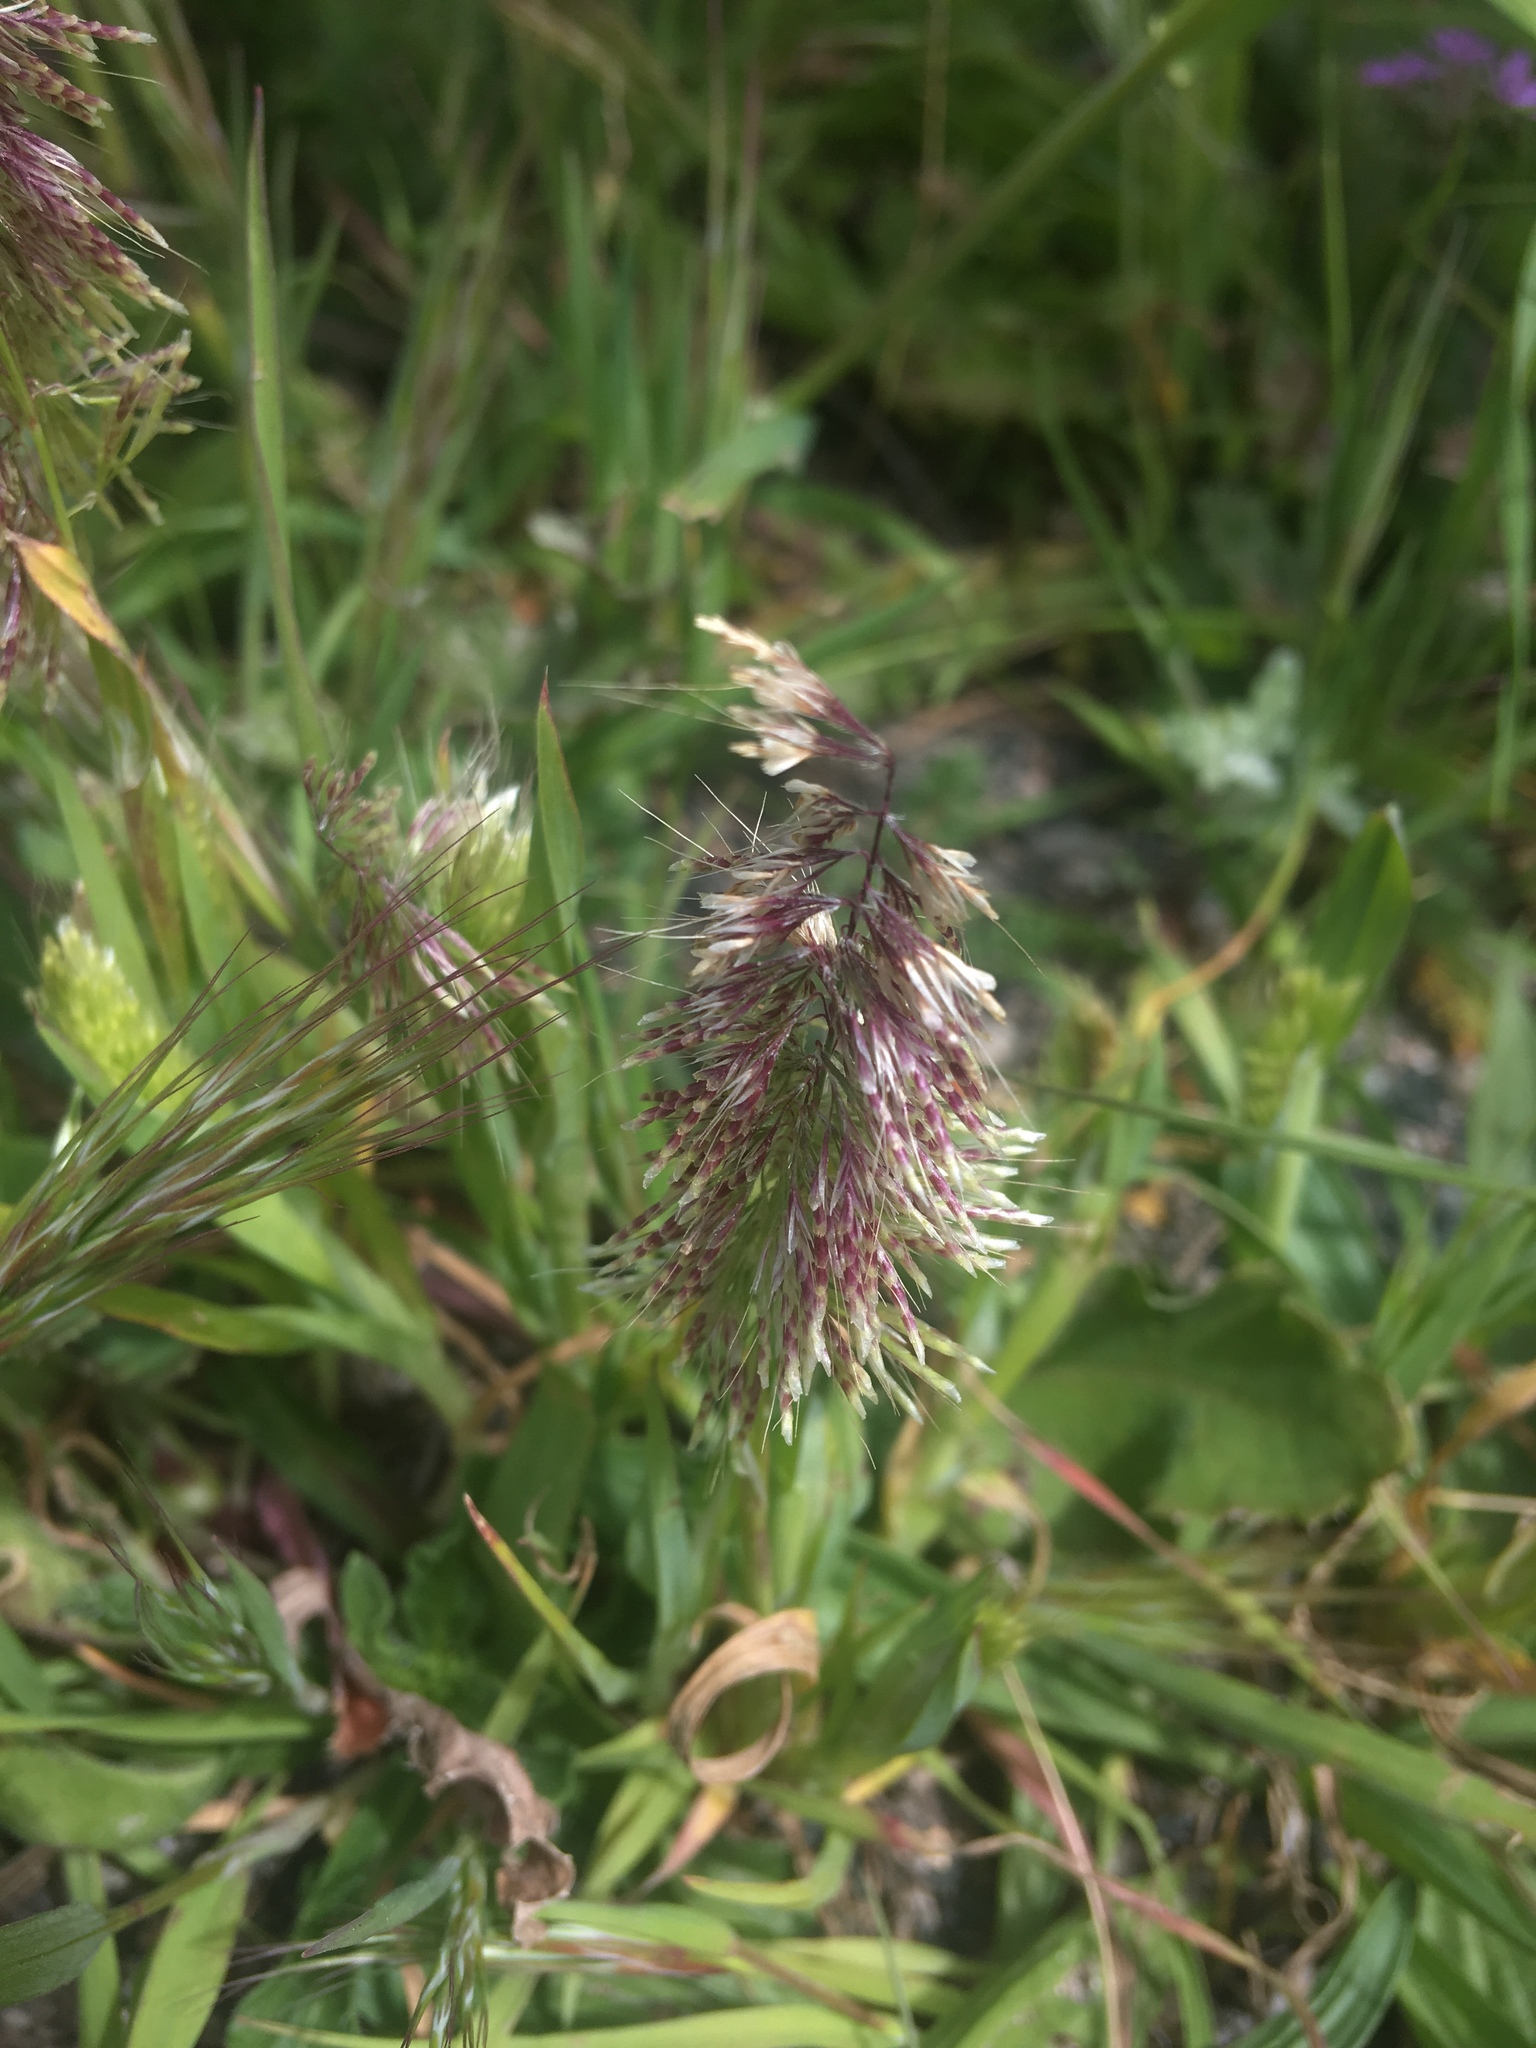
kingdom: Plantae
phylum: Tracheophyta
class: Liliopsida
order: Poales
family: Poaceae
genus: Lamarckia
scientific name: Lamarckia aurea
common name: Golden dog's-tail
